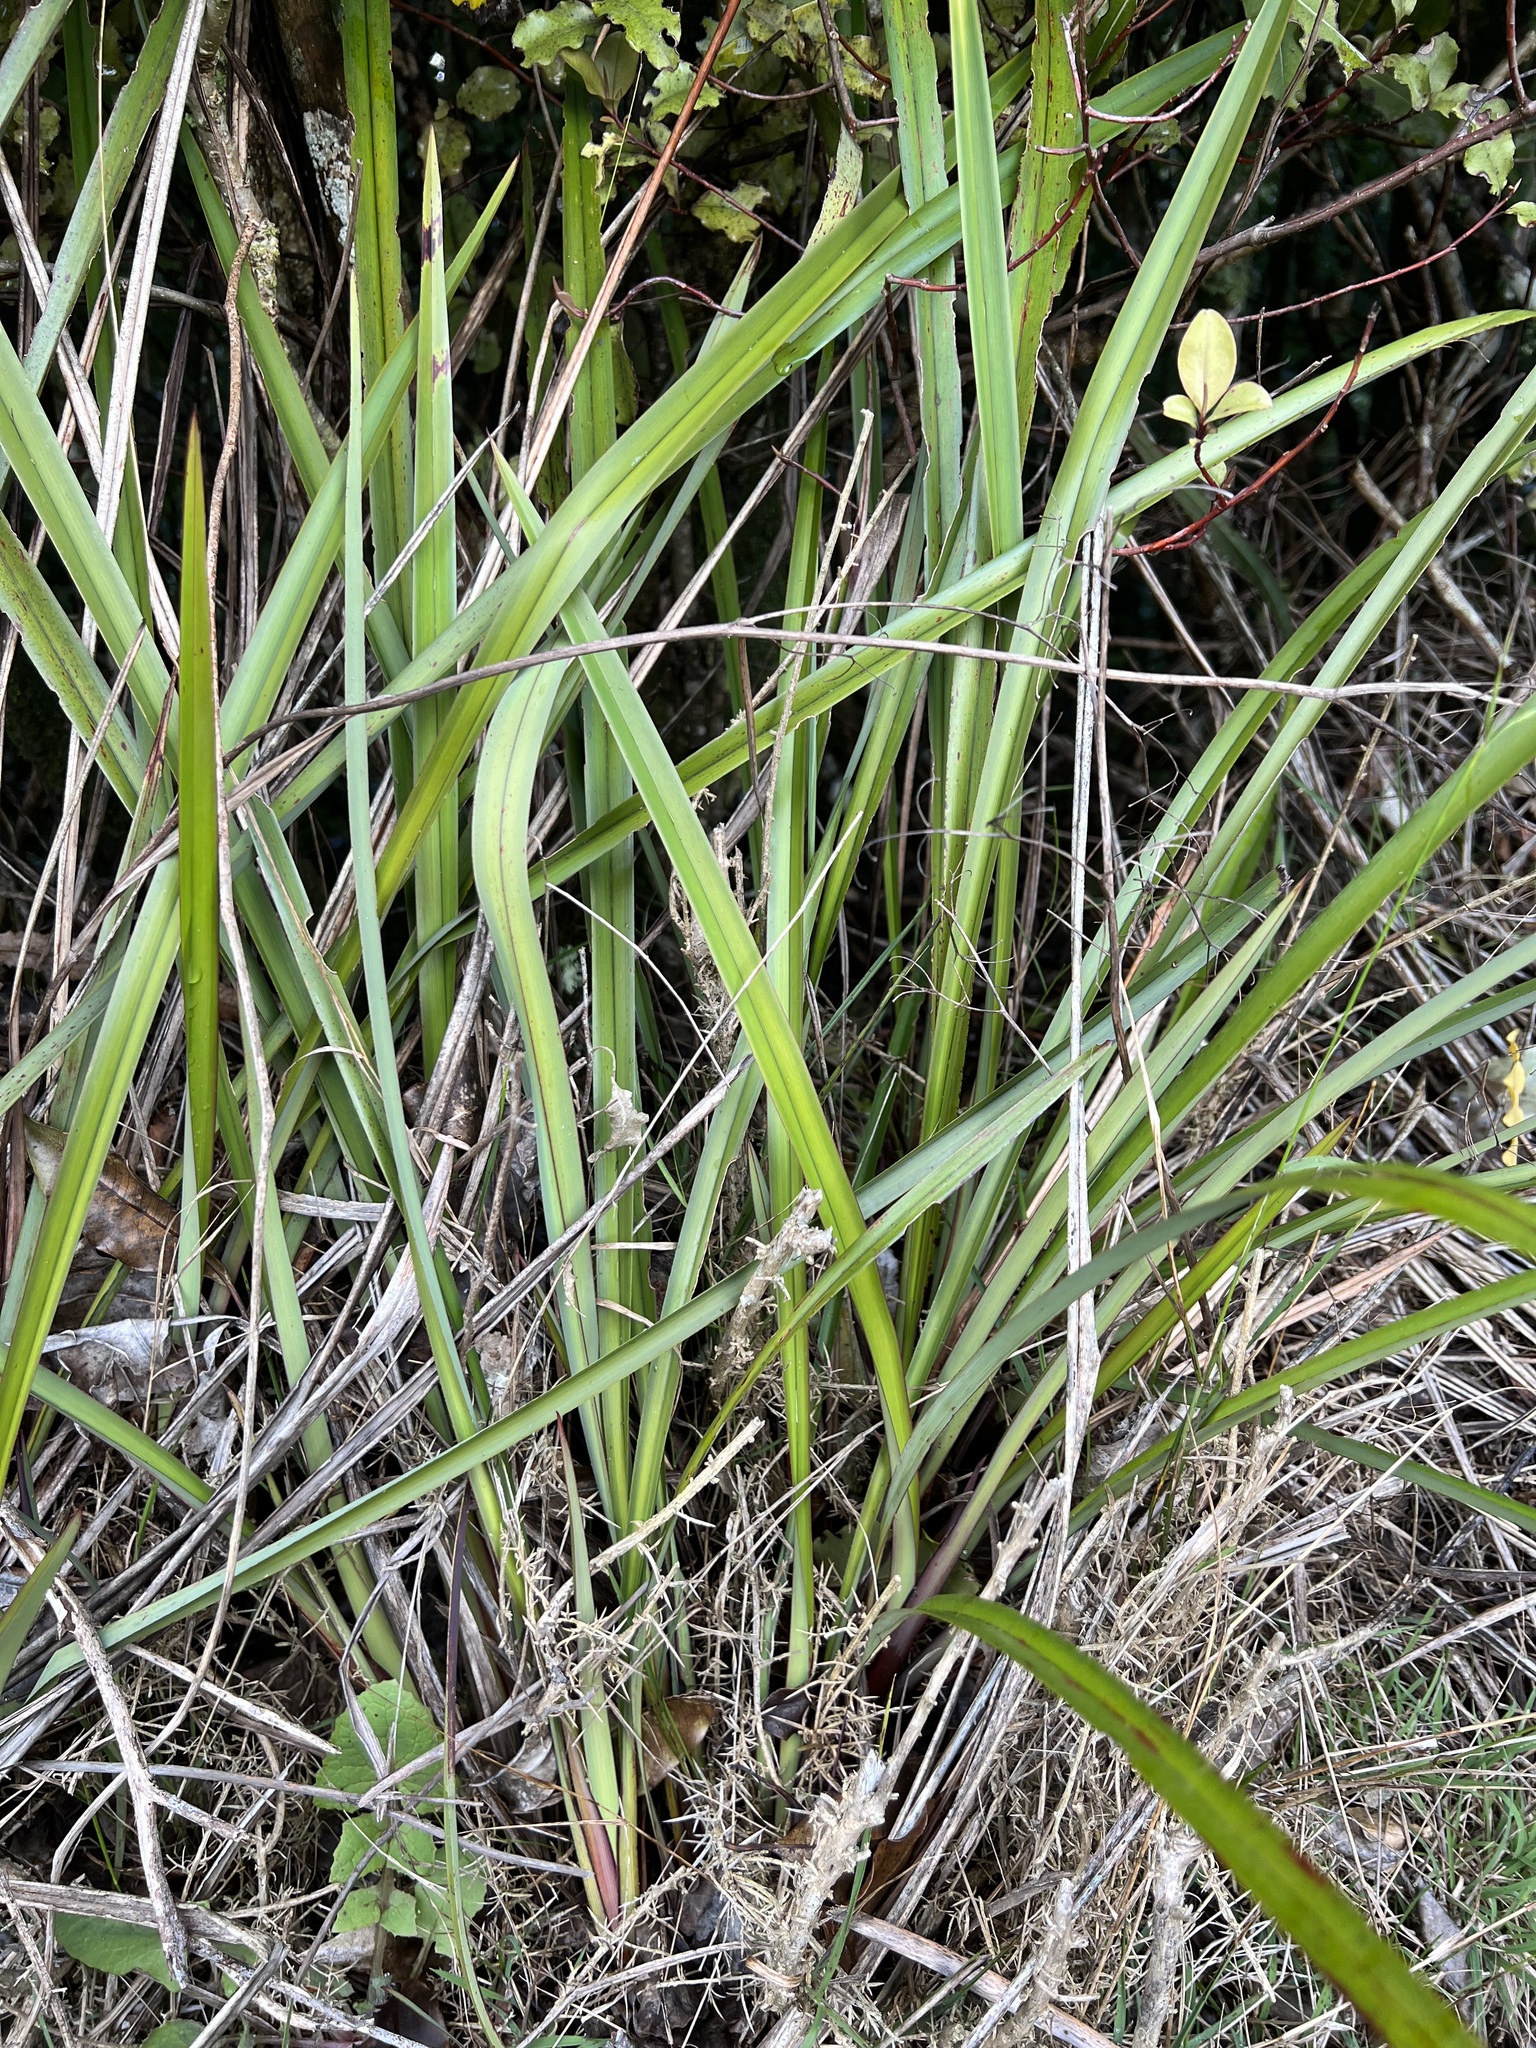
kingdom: Plantae
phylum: Tracheophyta
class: Liliopsida
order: Asparagales
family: Asphodelaceae
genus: Dianella
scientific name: Dianella nigra
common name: New zealand-blueberry
